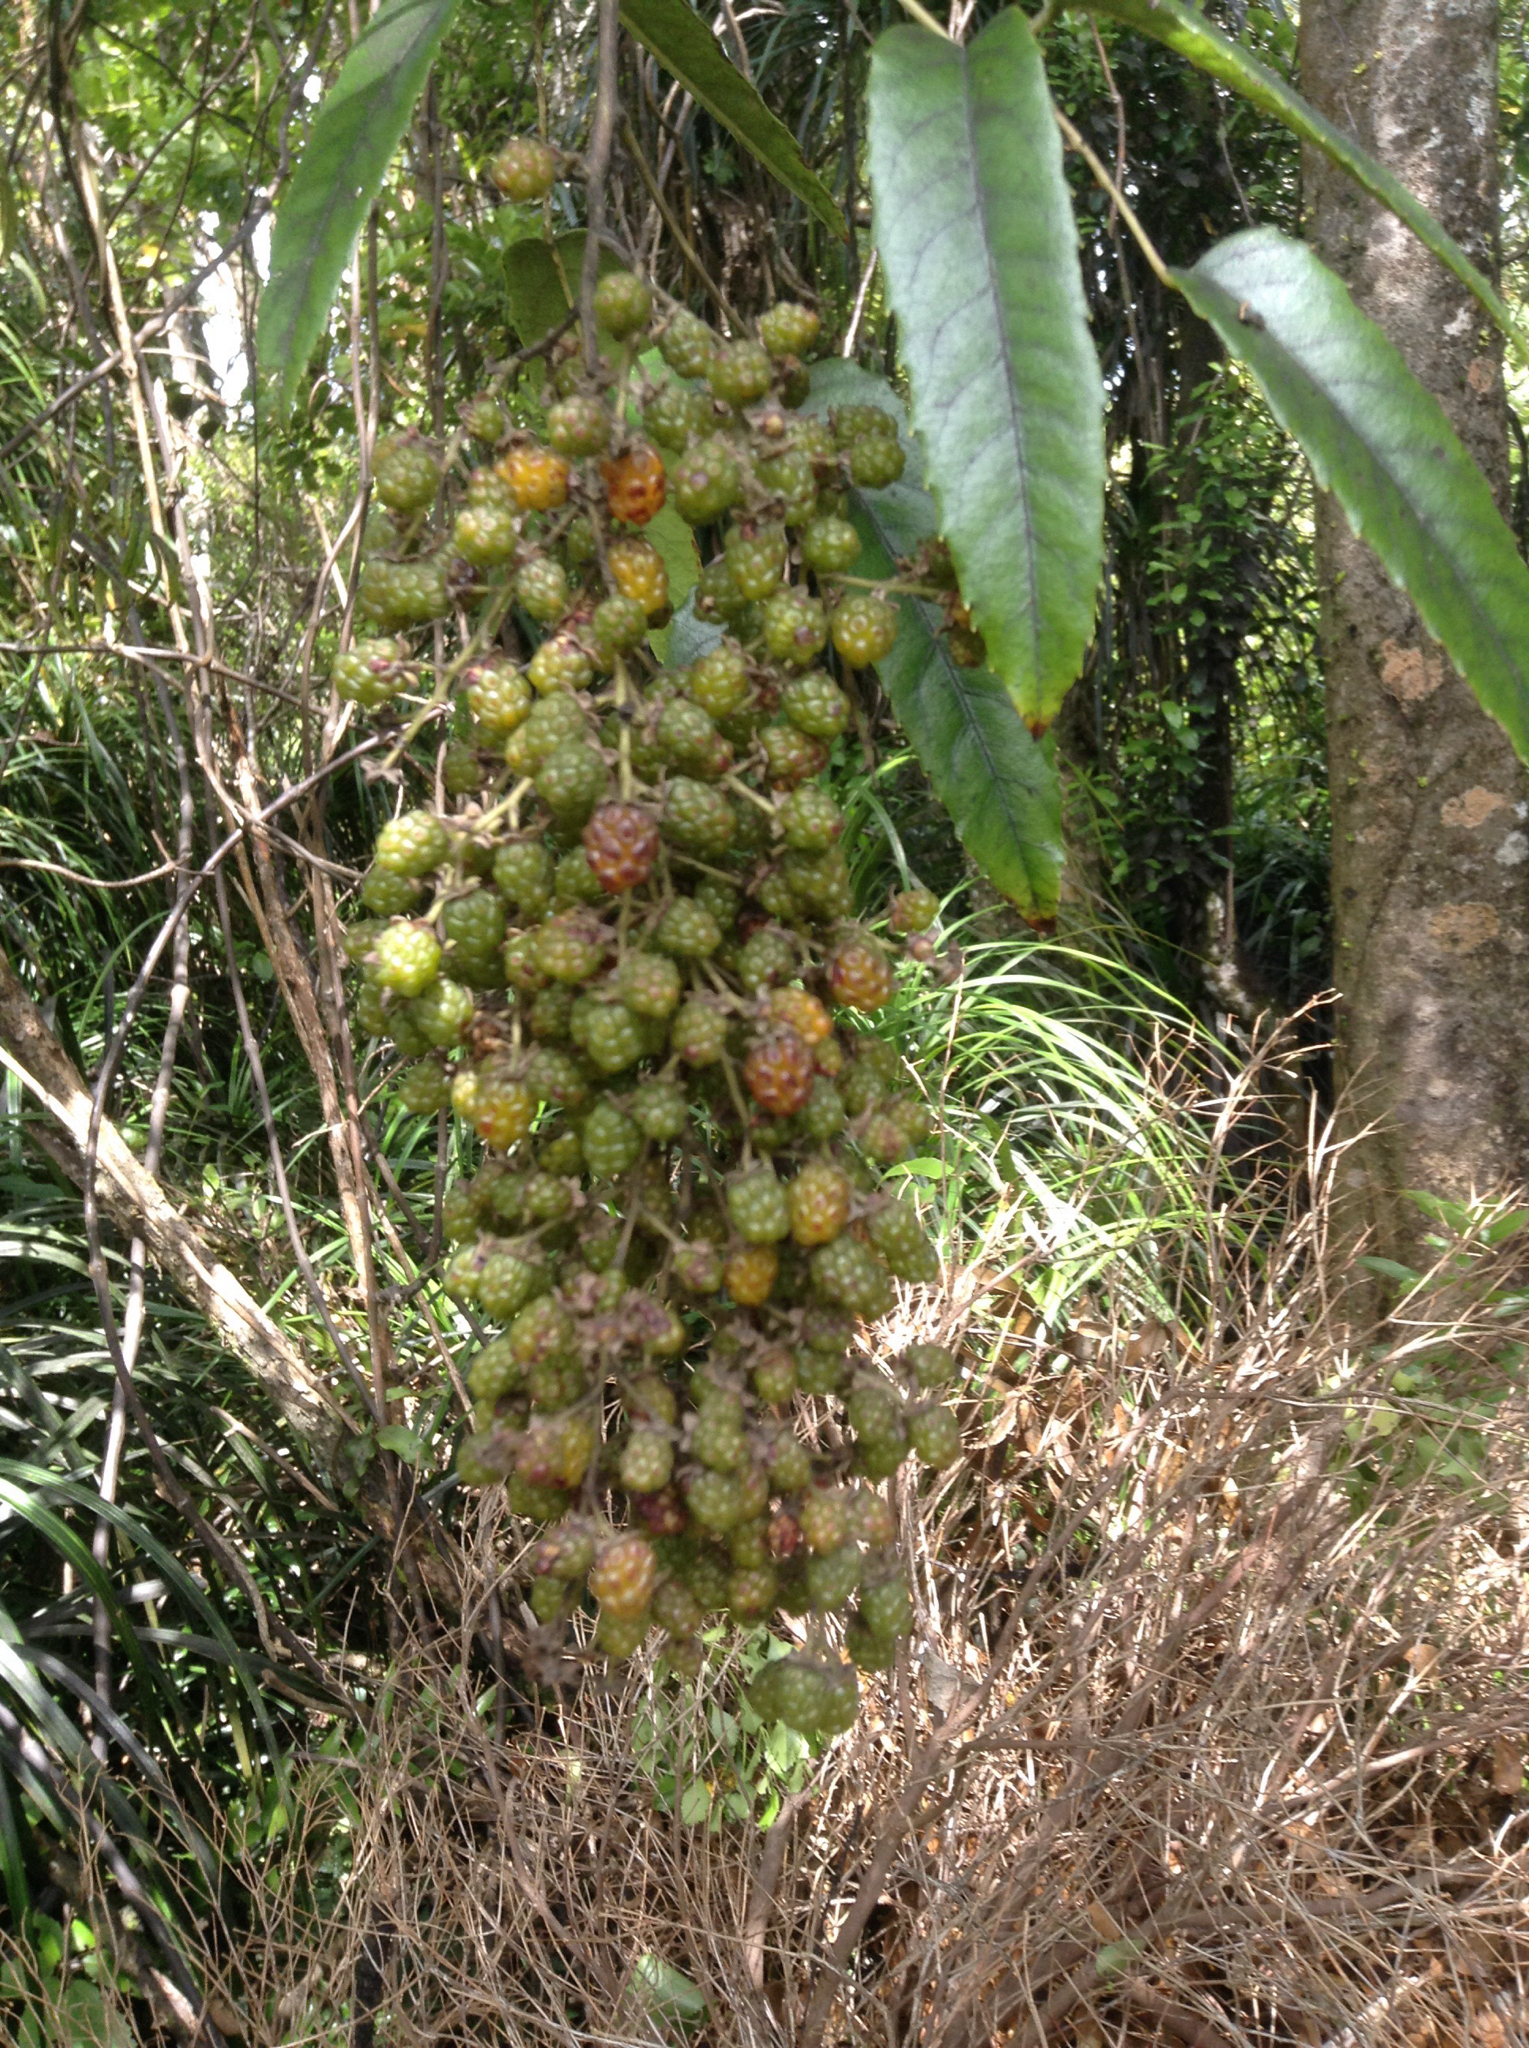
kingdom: Plantae
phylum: Tracheophyta
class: Magnoliopsida
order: Rosales
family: Rosaceae
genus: Rubus
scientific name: Rubus cissoides
